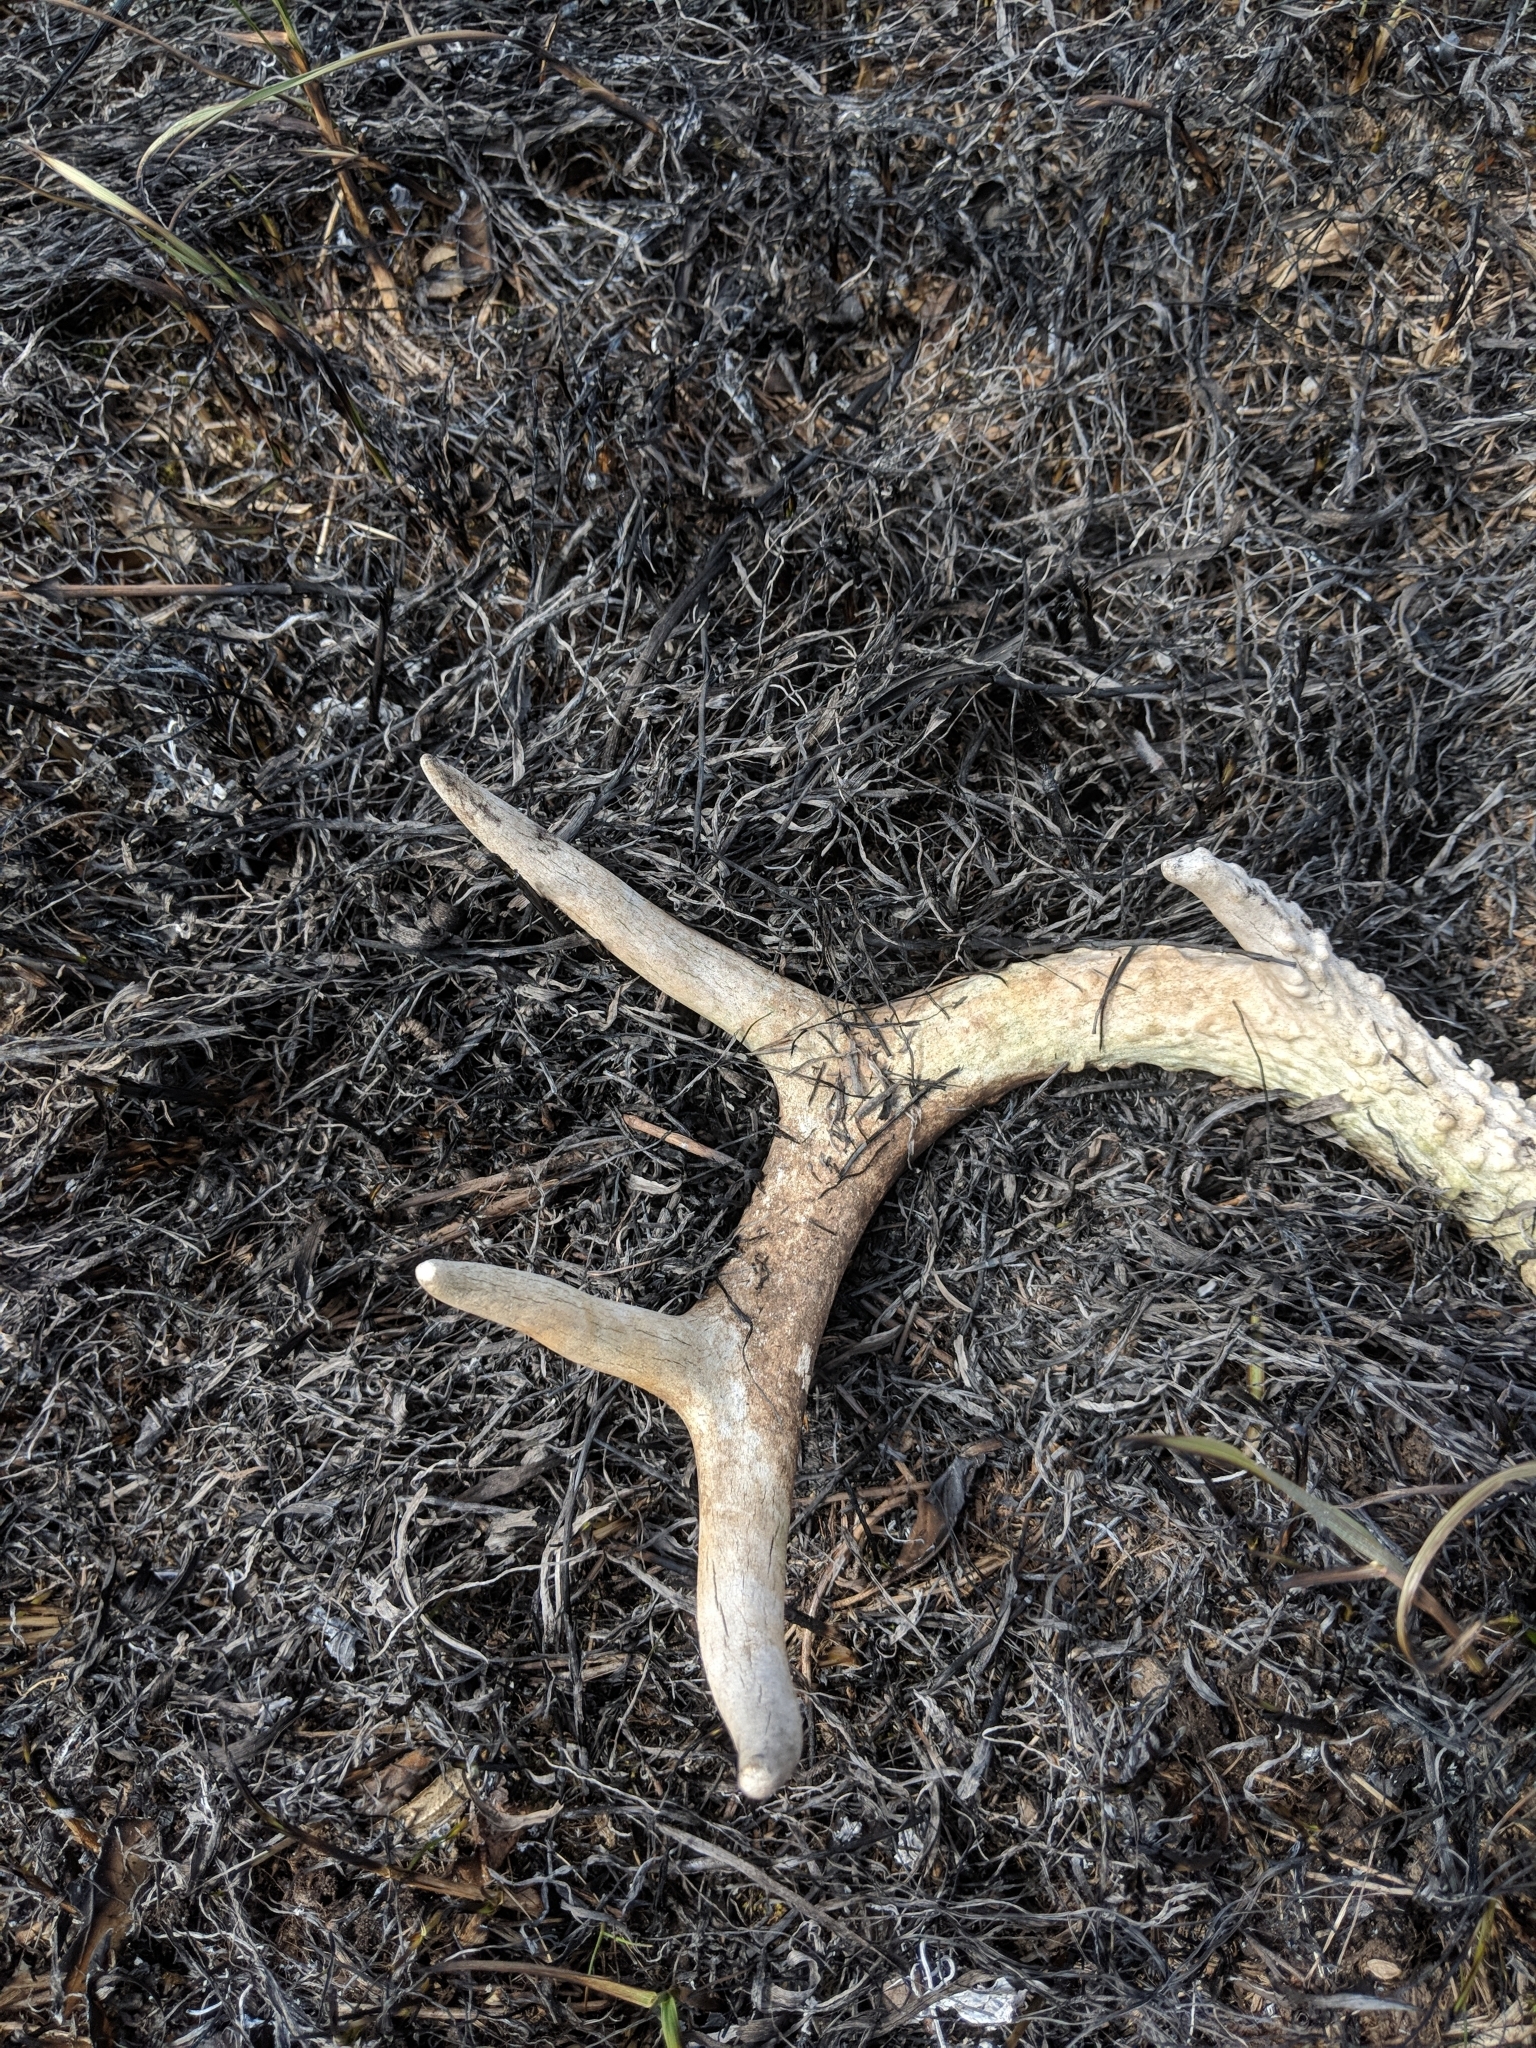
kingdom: Animalia
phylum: Chordata
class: Mammalia
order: Artiodactyla
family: Cervidae
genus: Odocoileus
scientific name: Odocoileus virginianus
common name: White-tailed deer
